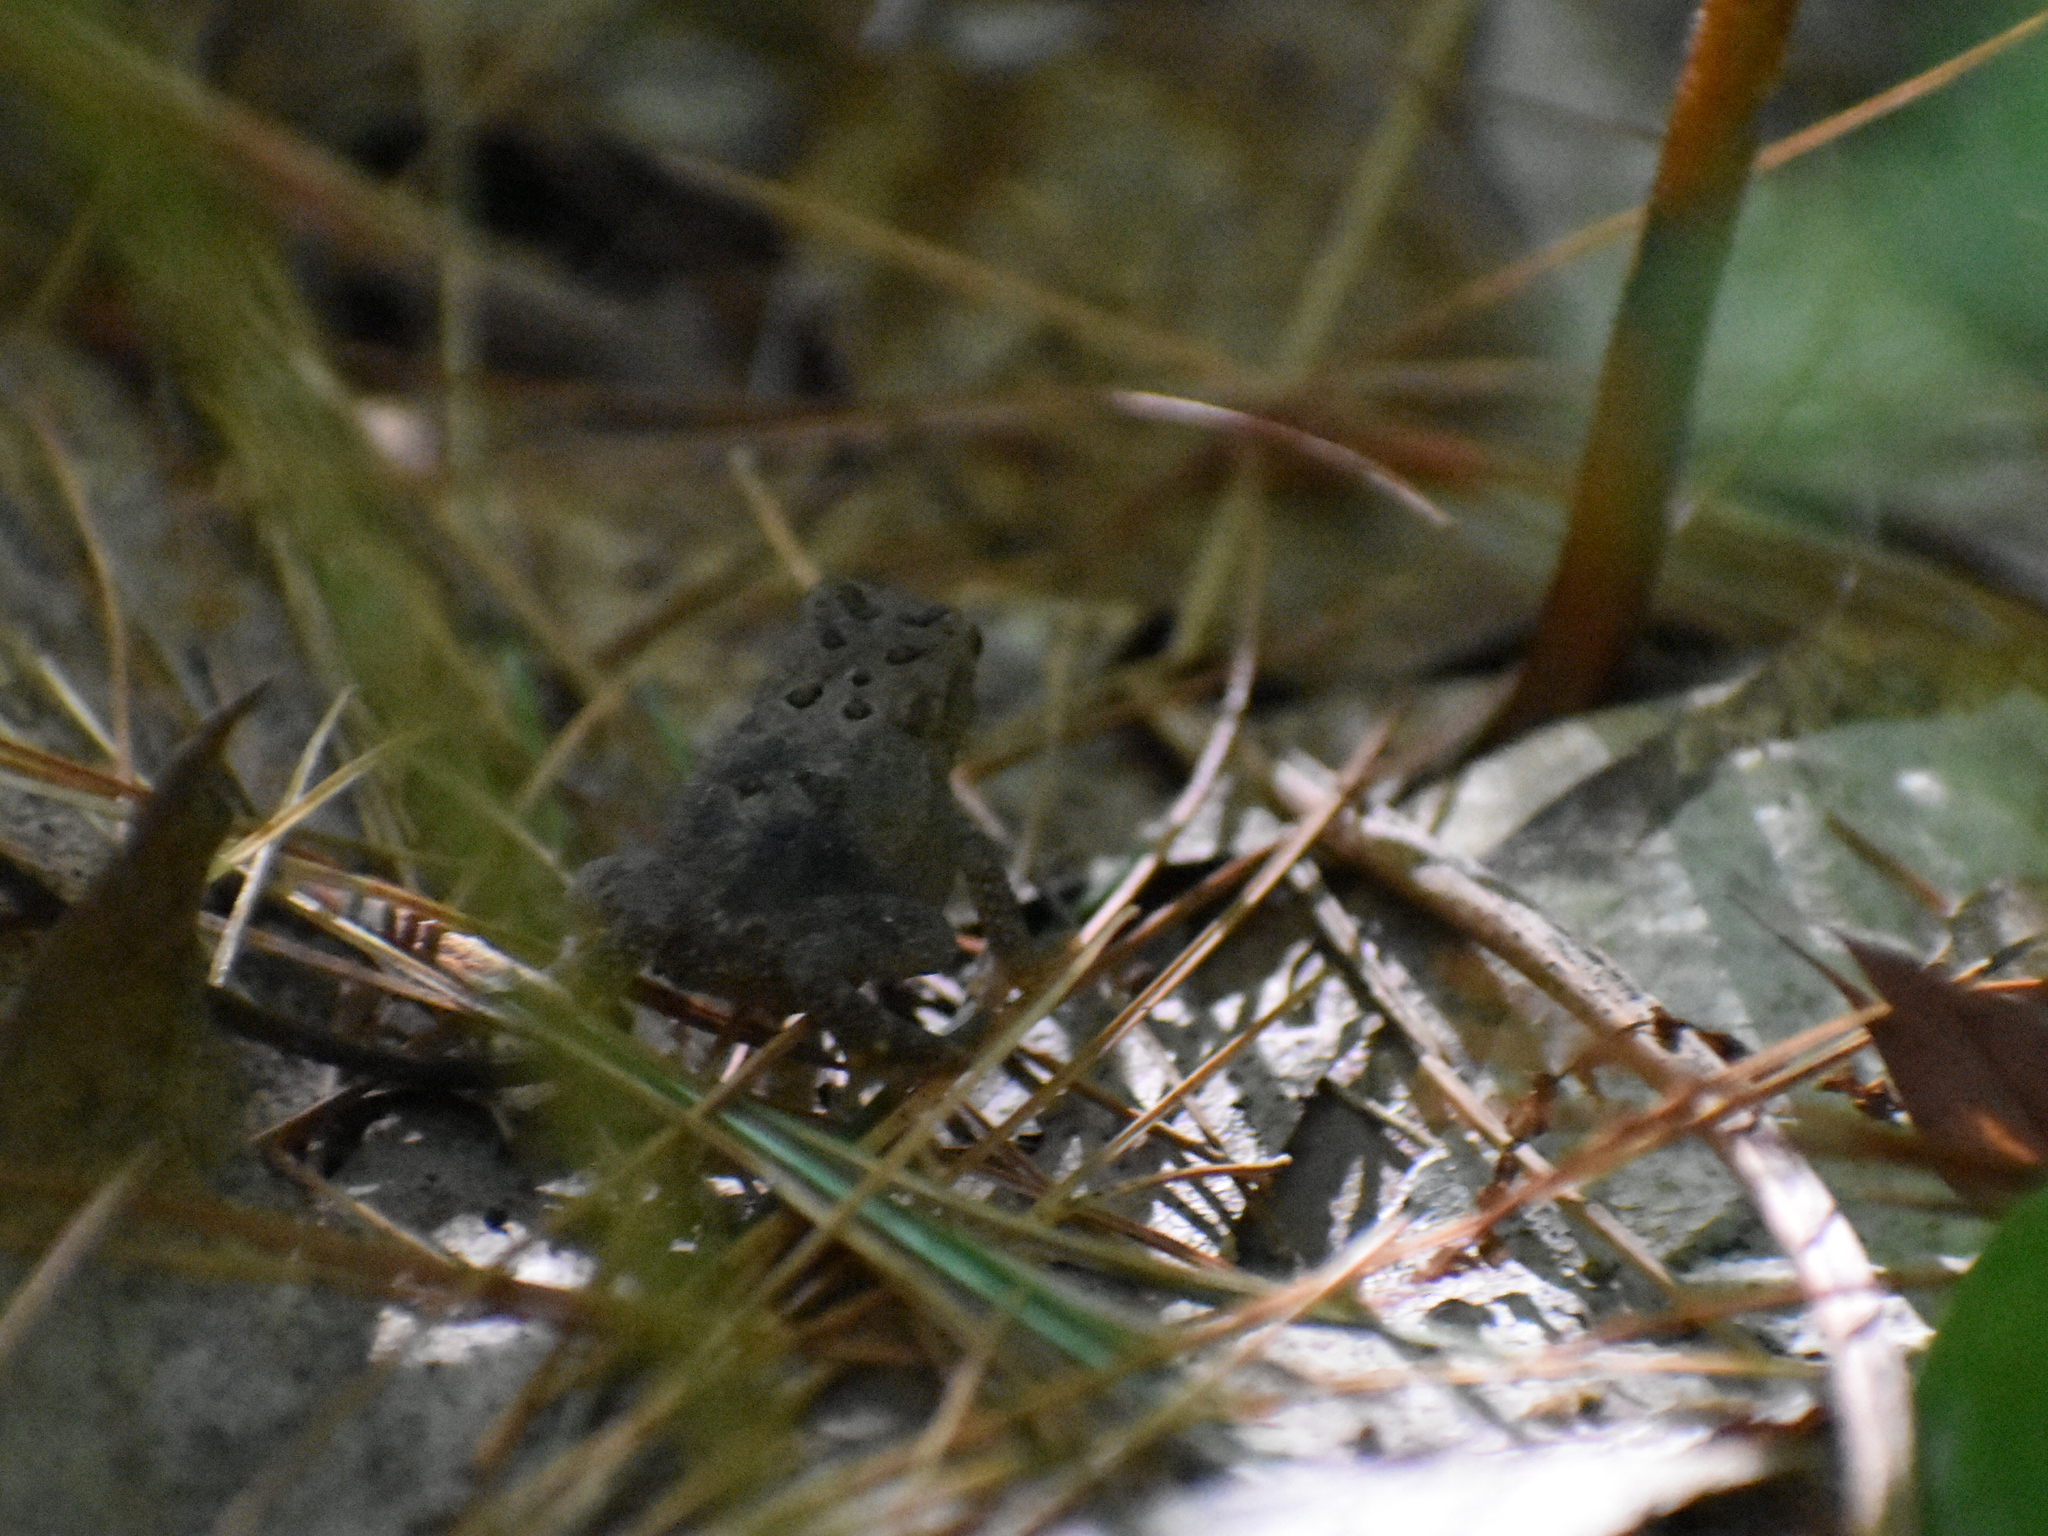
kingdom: Animalia
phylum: Chordata
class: Amphibia
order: Anura
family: Bufonidae
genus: Anaxyrus
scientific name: Anaxyrus americanus
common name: American toad
